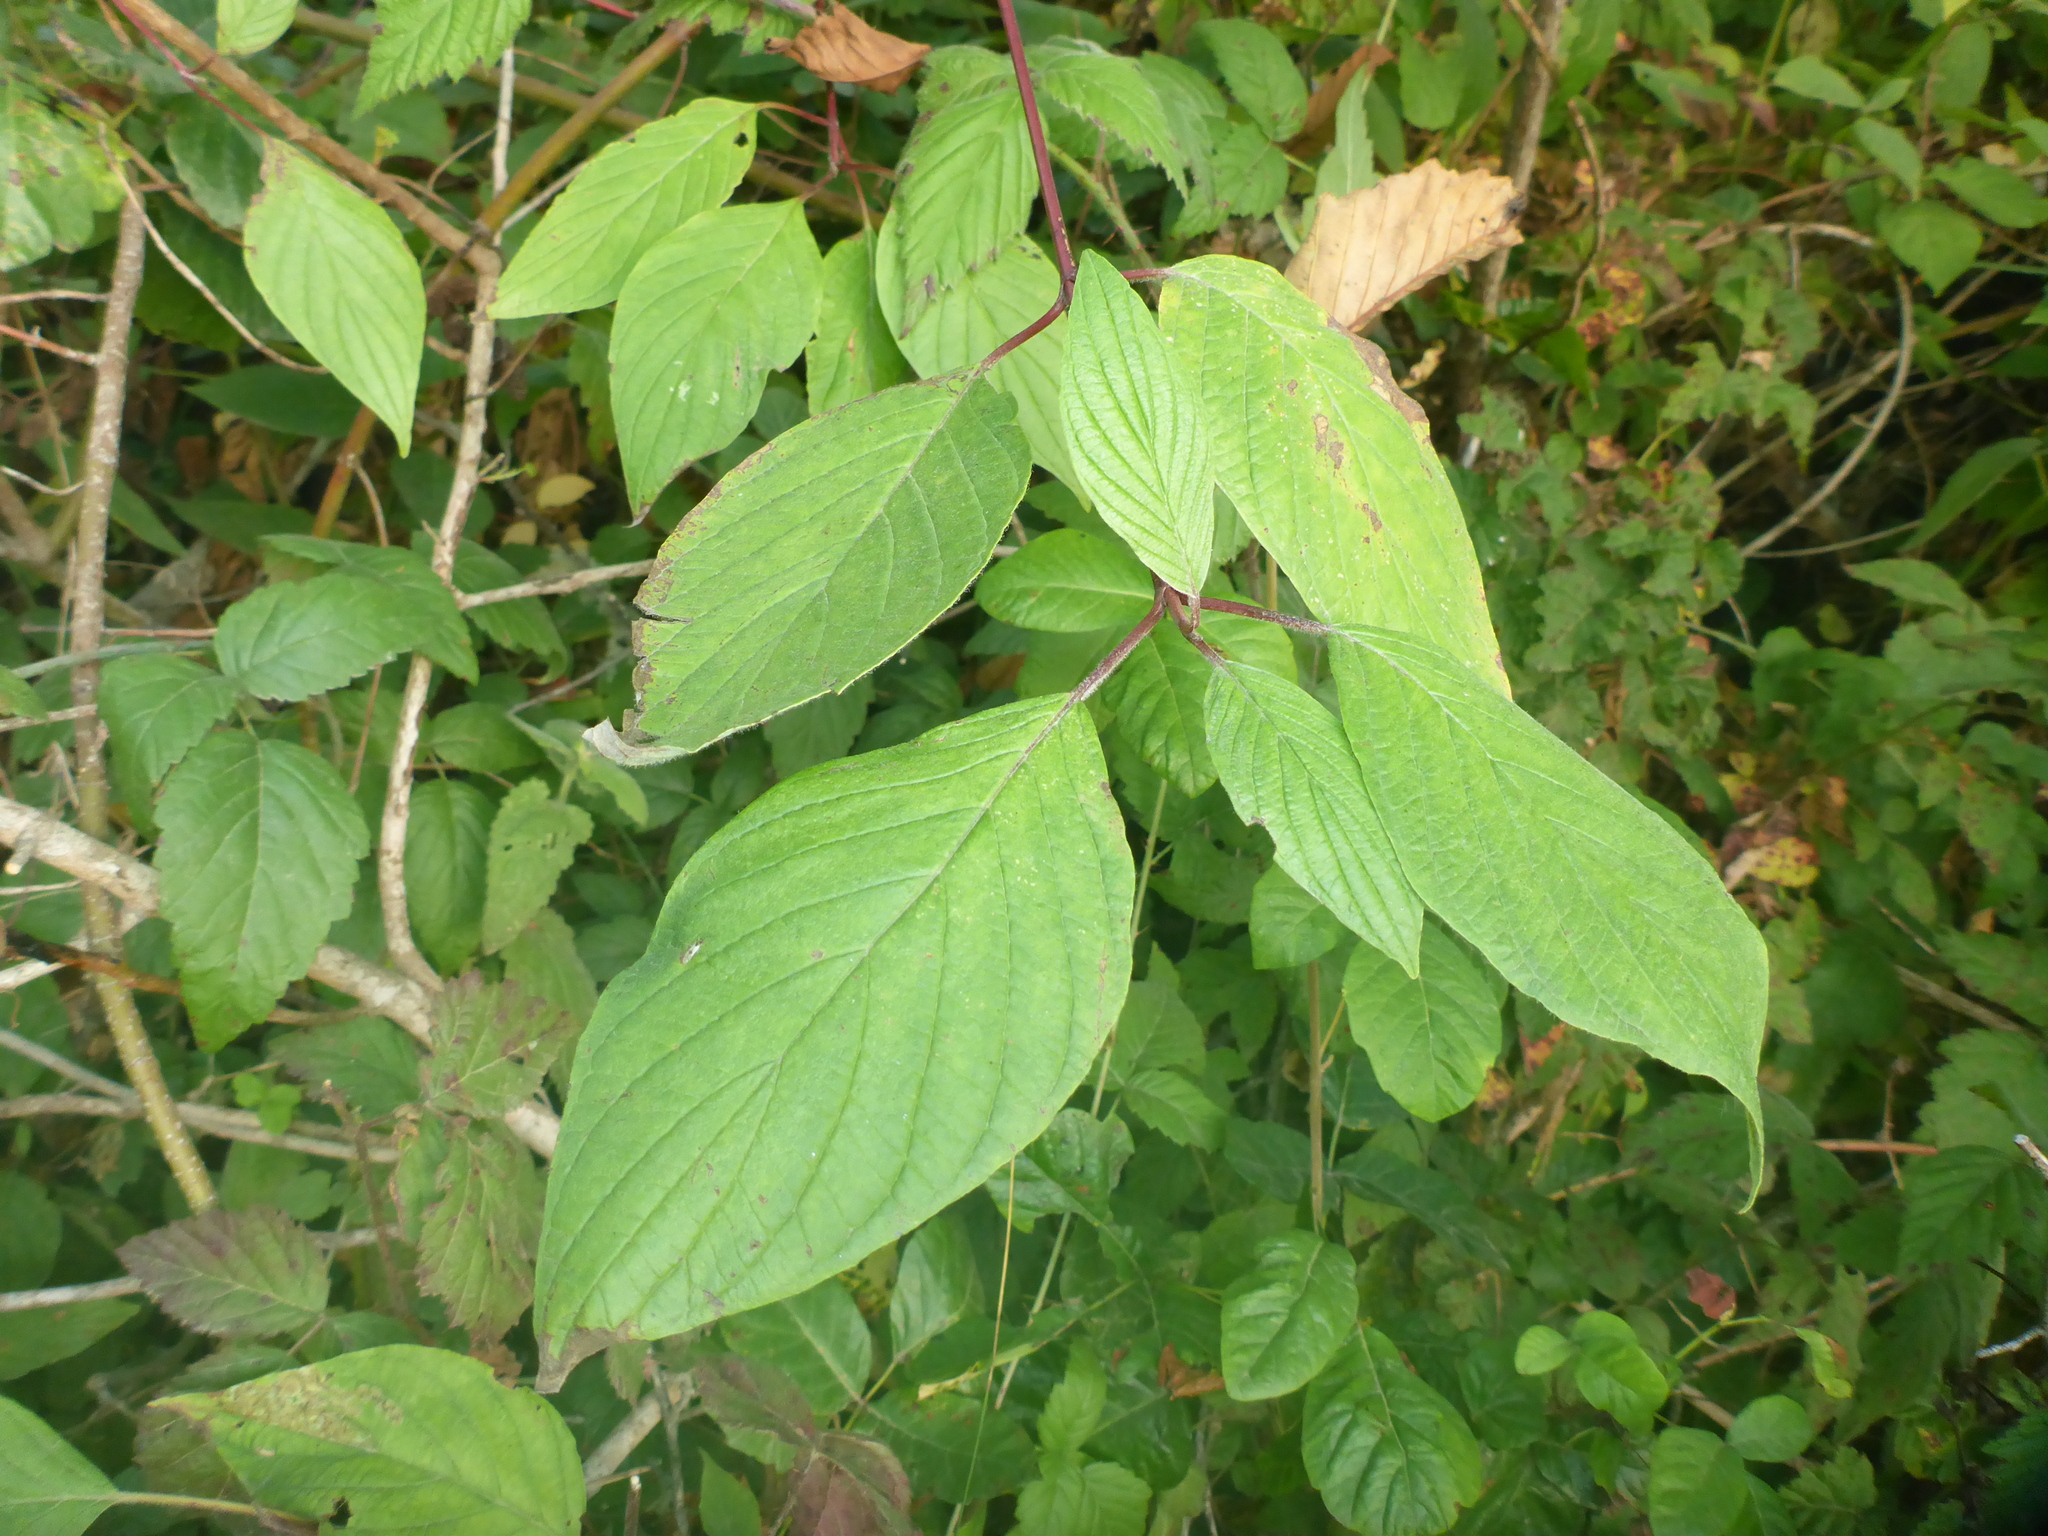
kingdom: Plantae
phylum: Tracheophyta
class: Magnoliopsida
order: Cornales
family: Cornaceae
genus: Cornus
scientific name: Cornus sericea
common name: Red-osier dogwood
